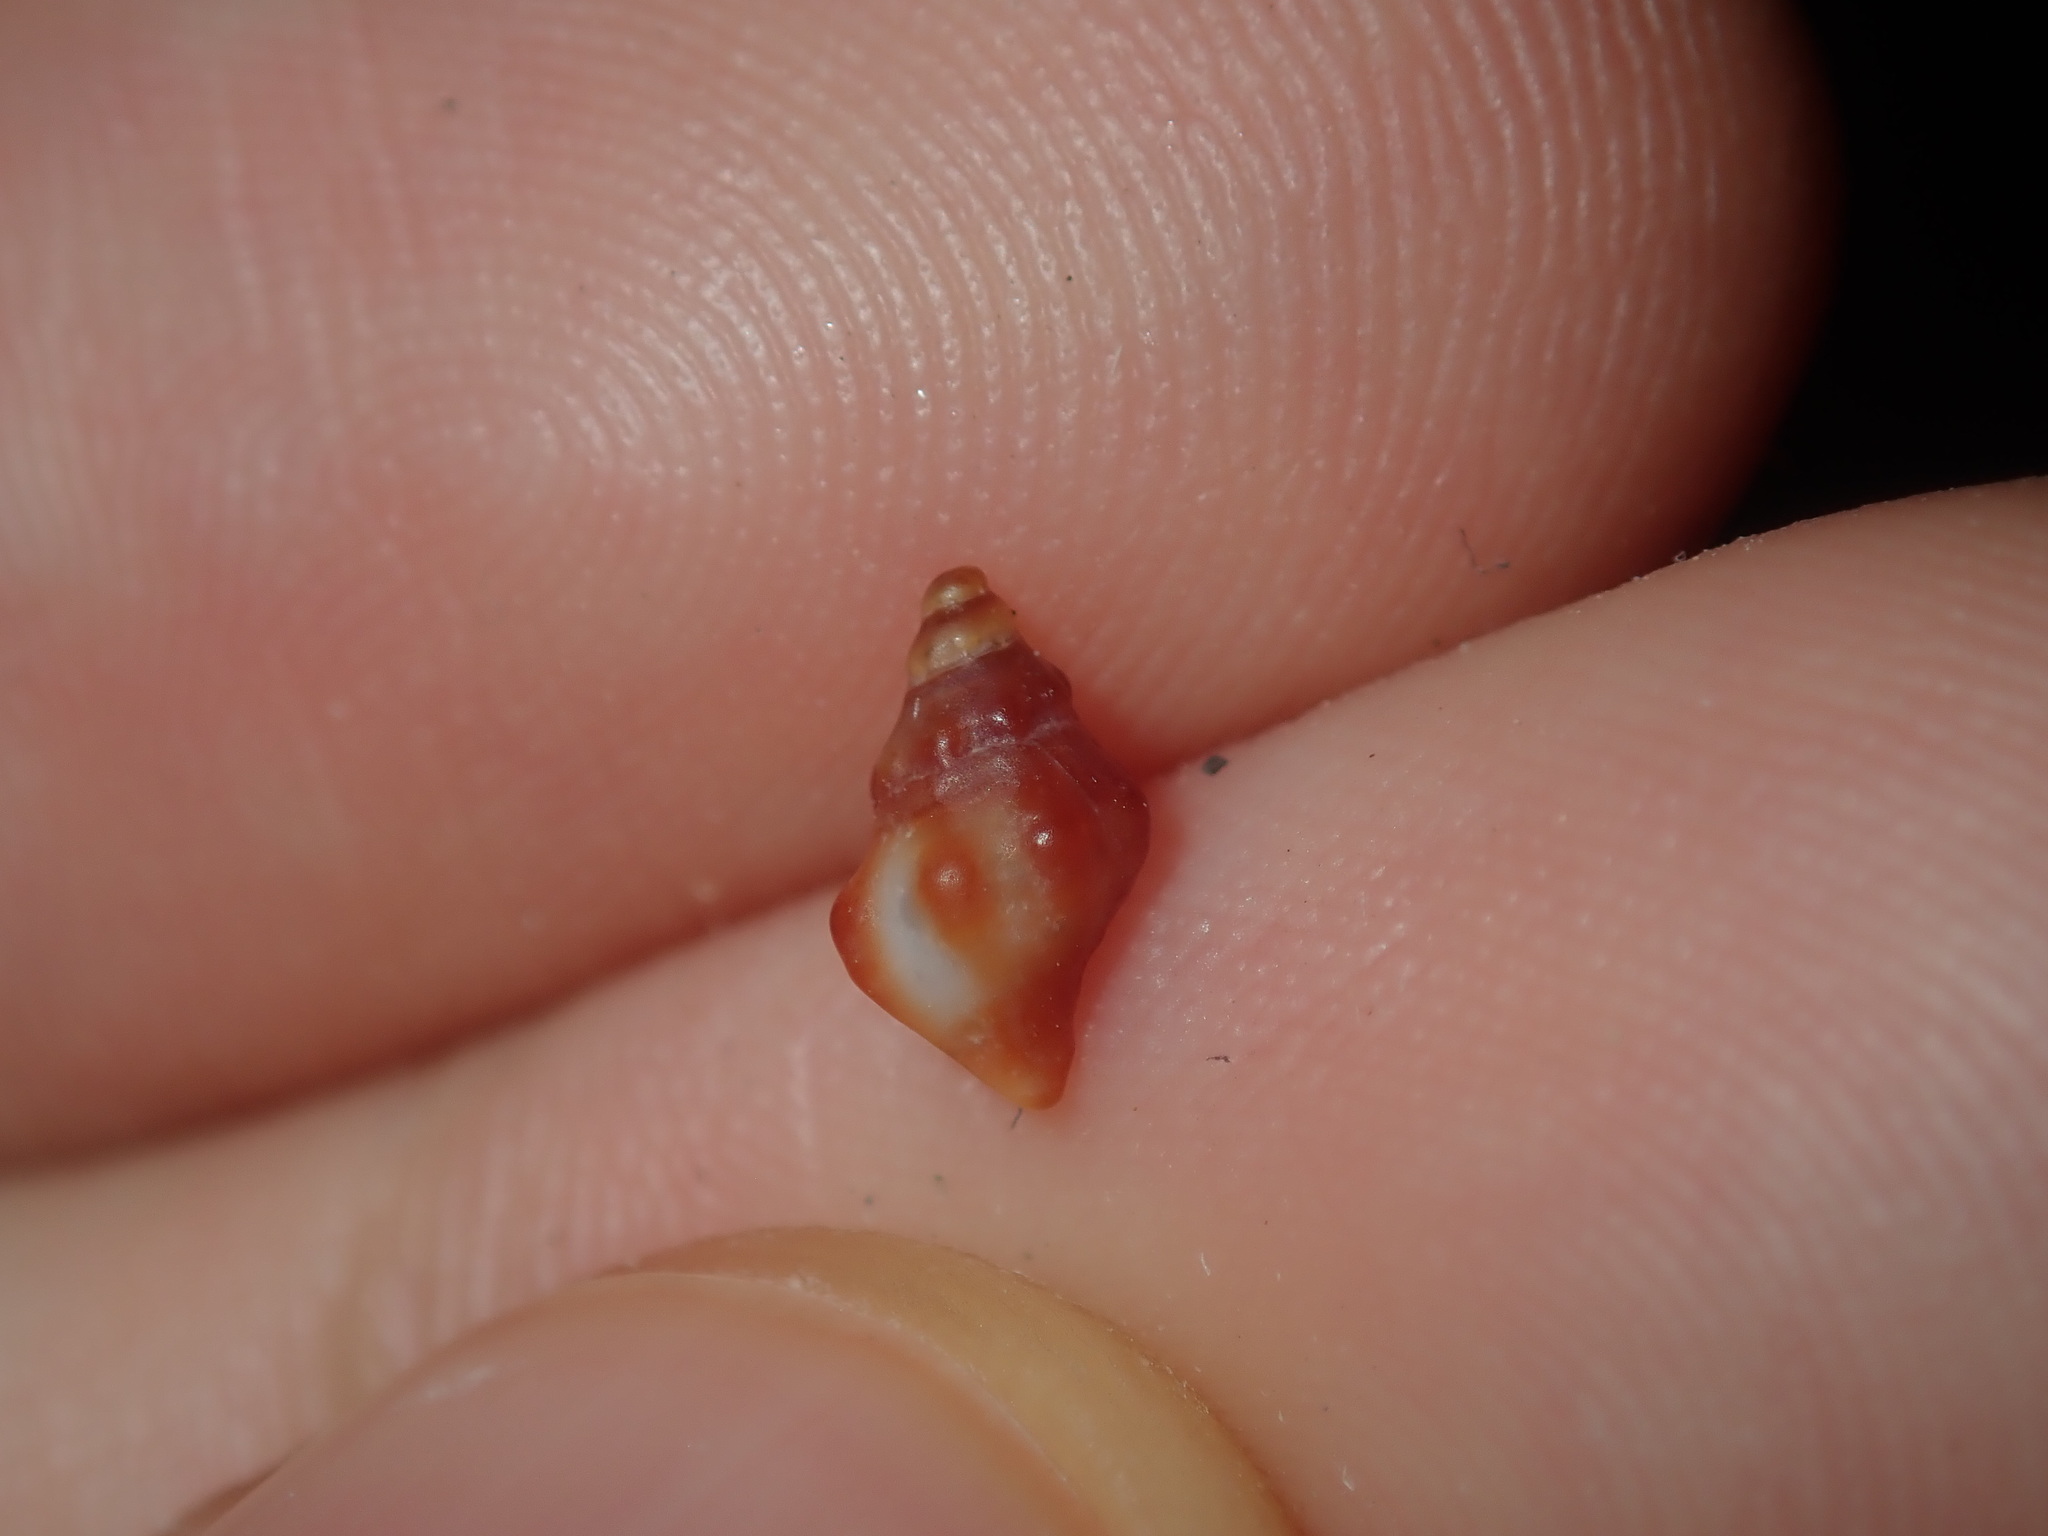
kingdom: Animalia
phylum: Mollusca
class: Gastropoda
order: Neogastropoda
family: Muricidae
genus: Phycothais
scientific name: Phycothais reticulata
